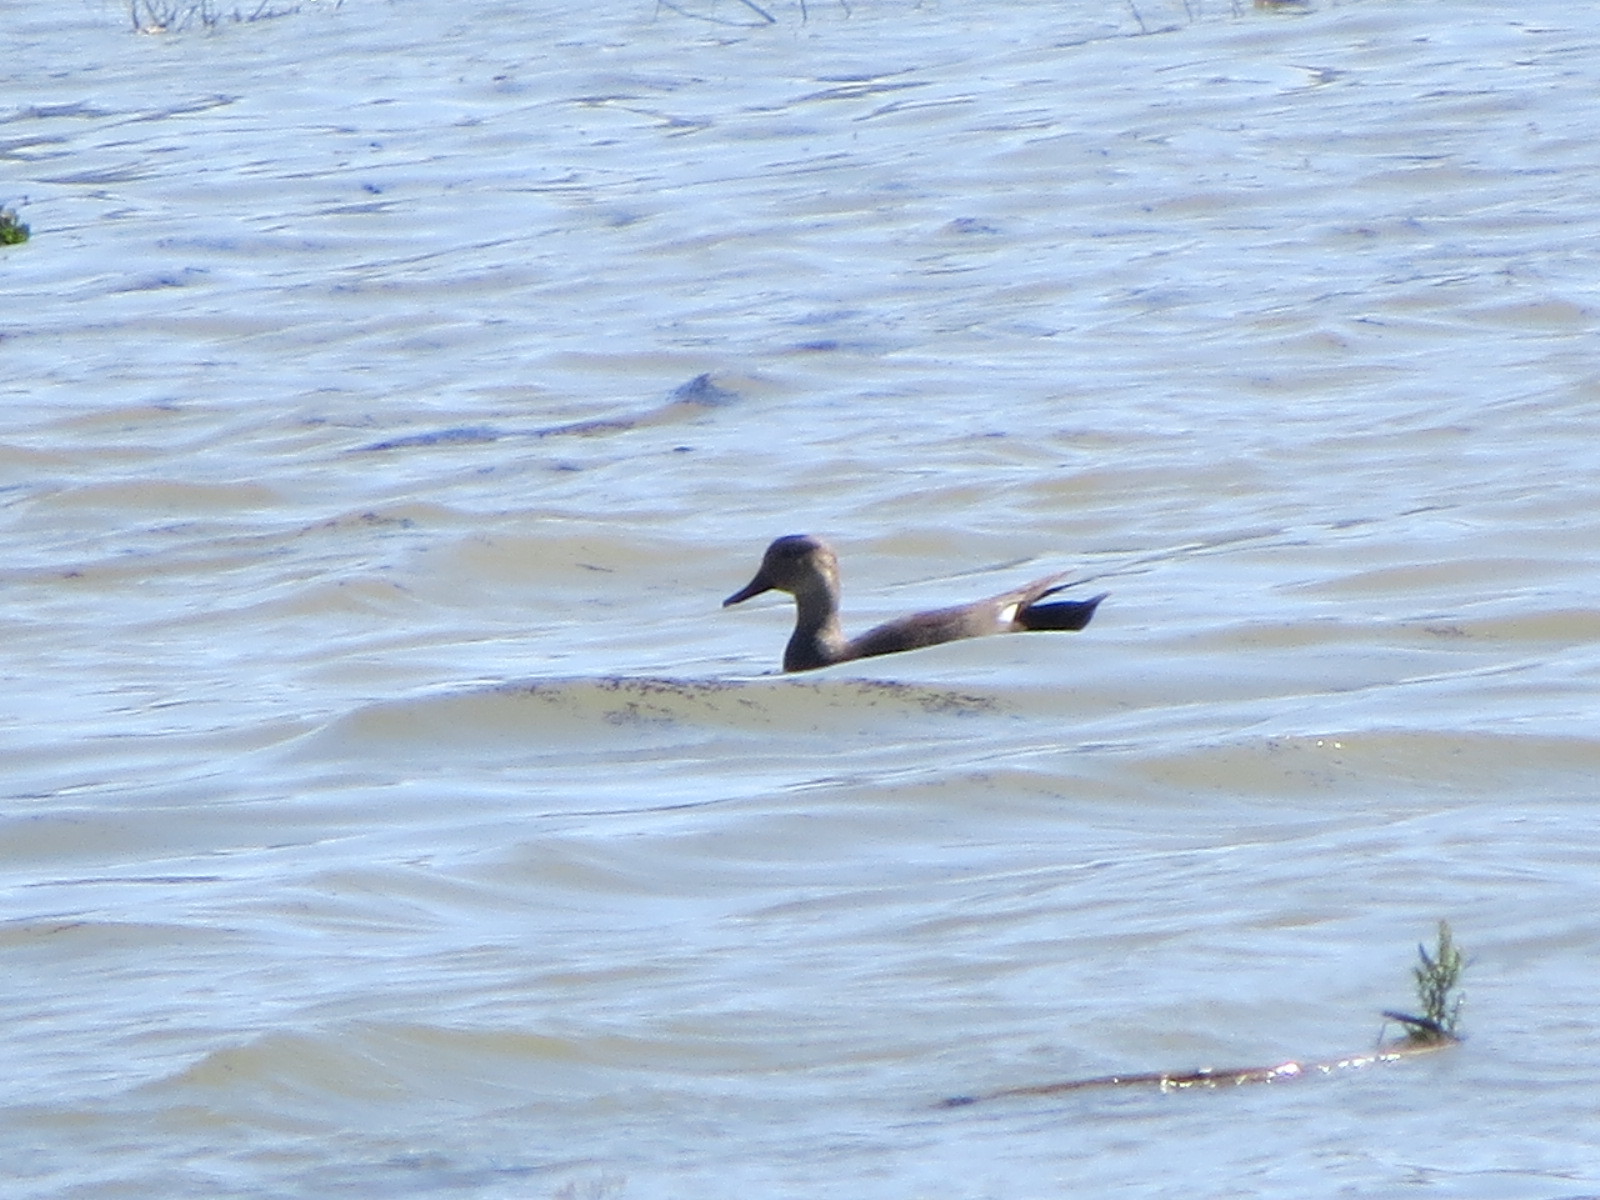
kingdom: Animalia
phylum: Chordata
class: Aves
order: Anseriformes
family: Anatidae
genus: Mareca
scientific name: Mareca strepera
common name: Gadwall
